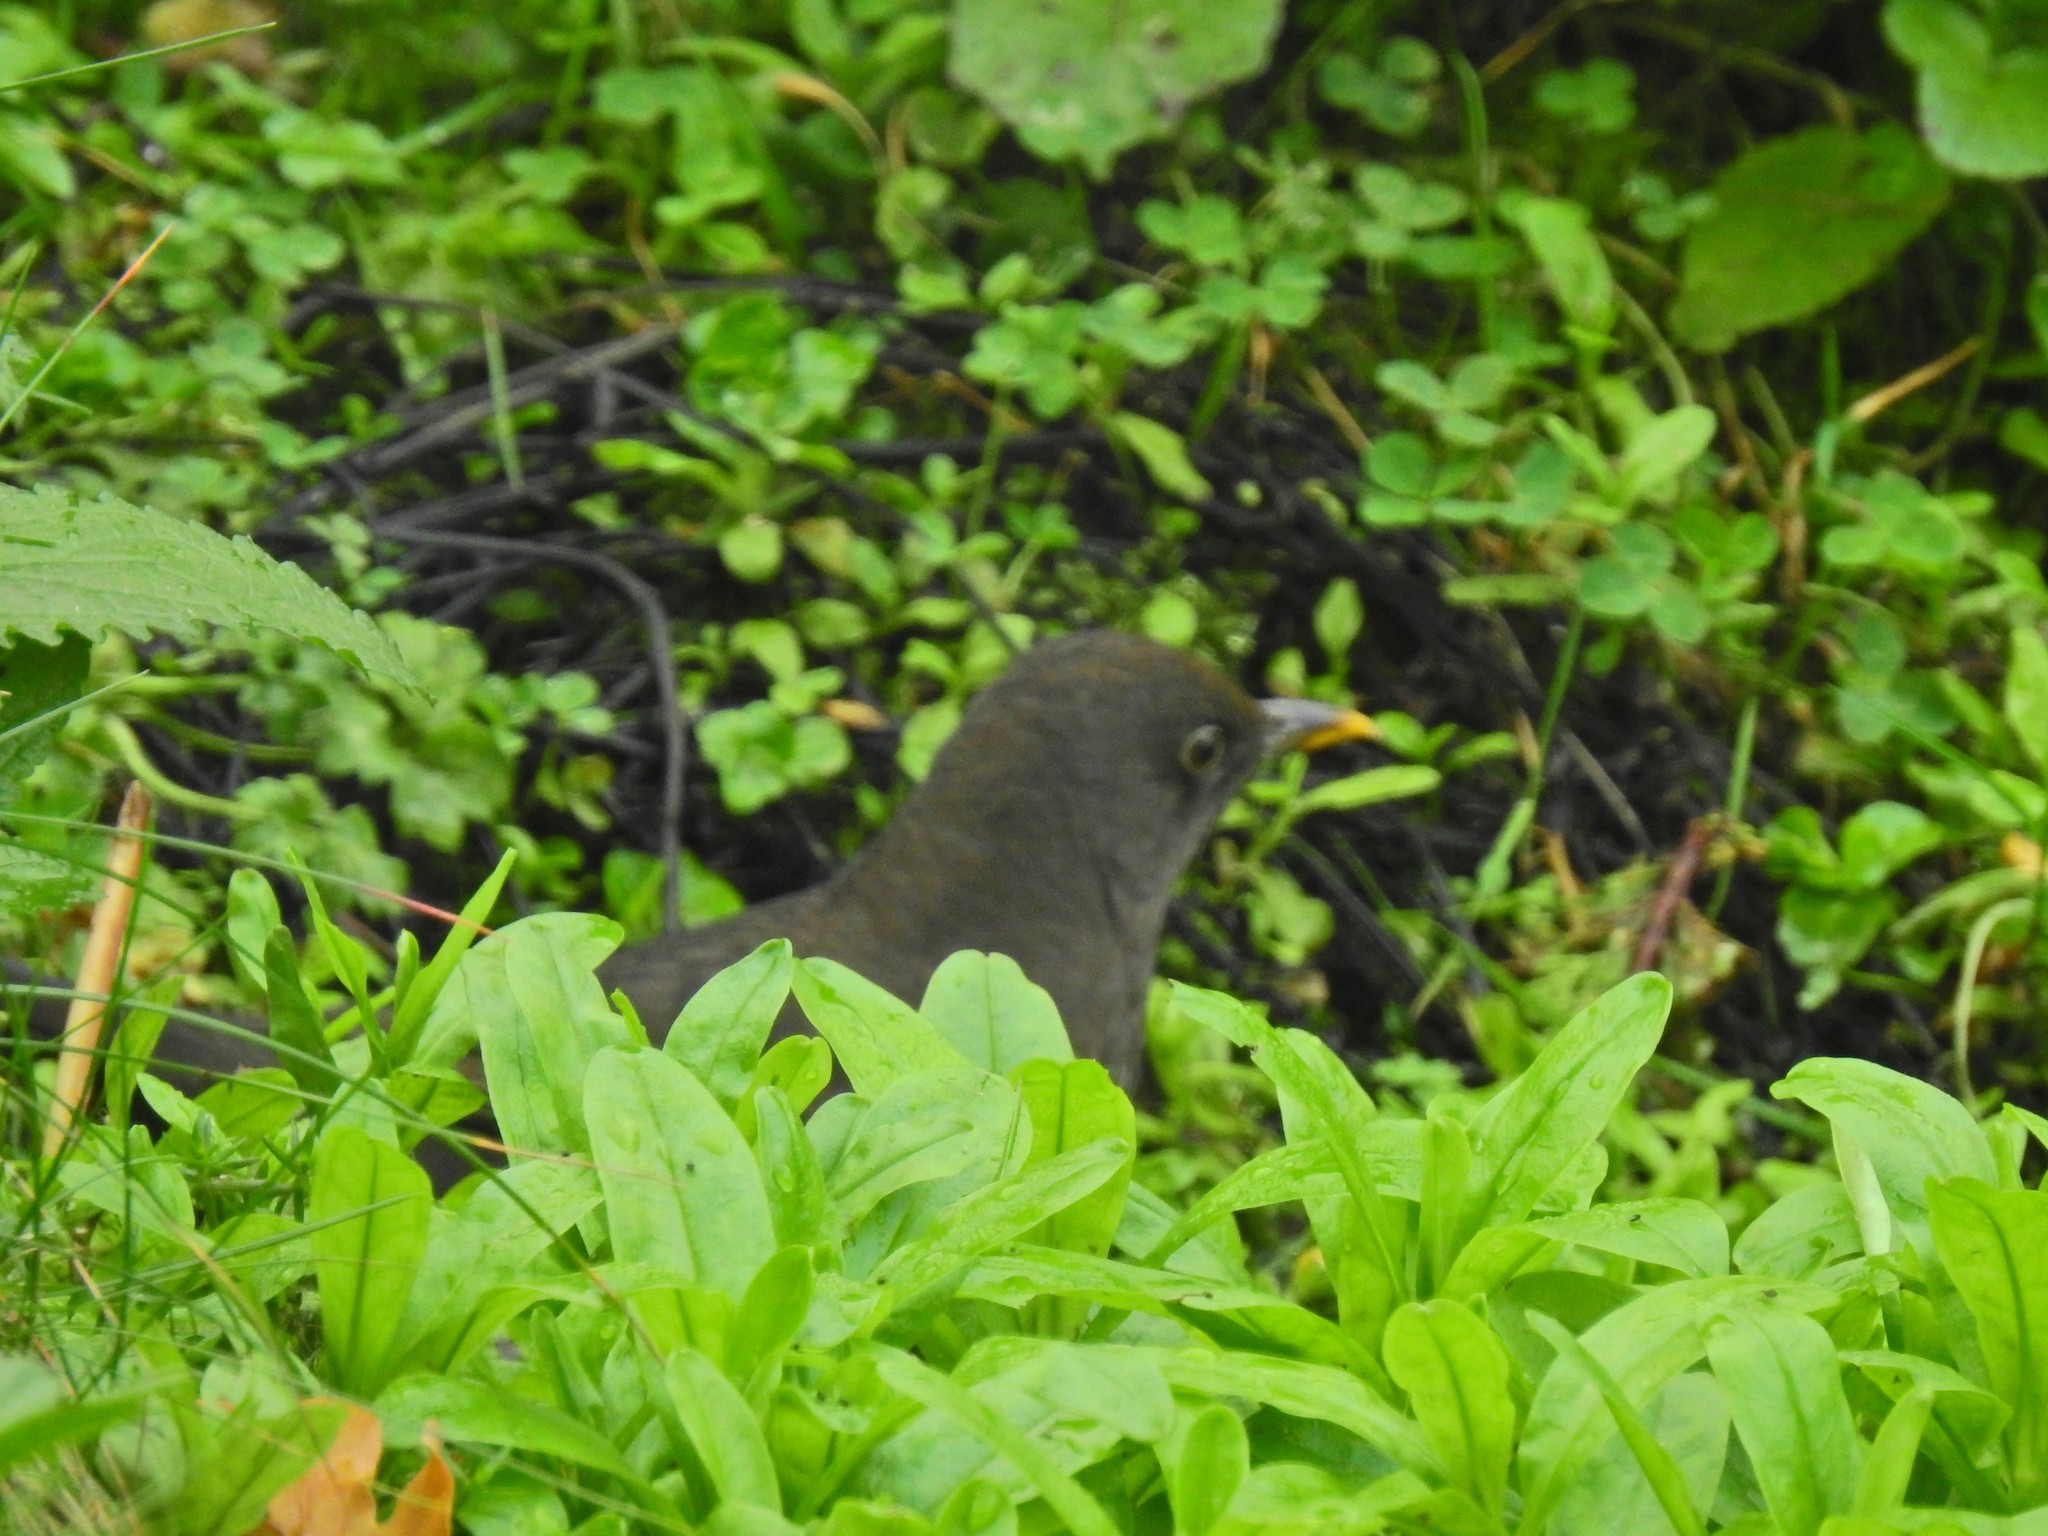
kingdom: Animalia
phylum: Chordata
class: Aves
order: Passeriformes
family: Turdidae
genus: Turdus
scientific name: Turdus merula
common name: Common blackbird
